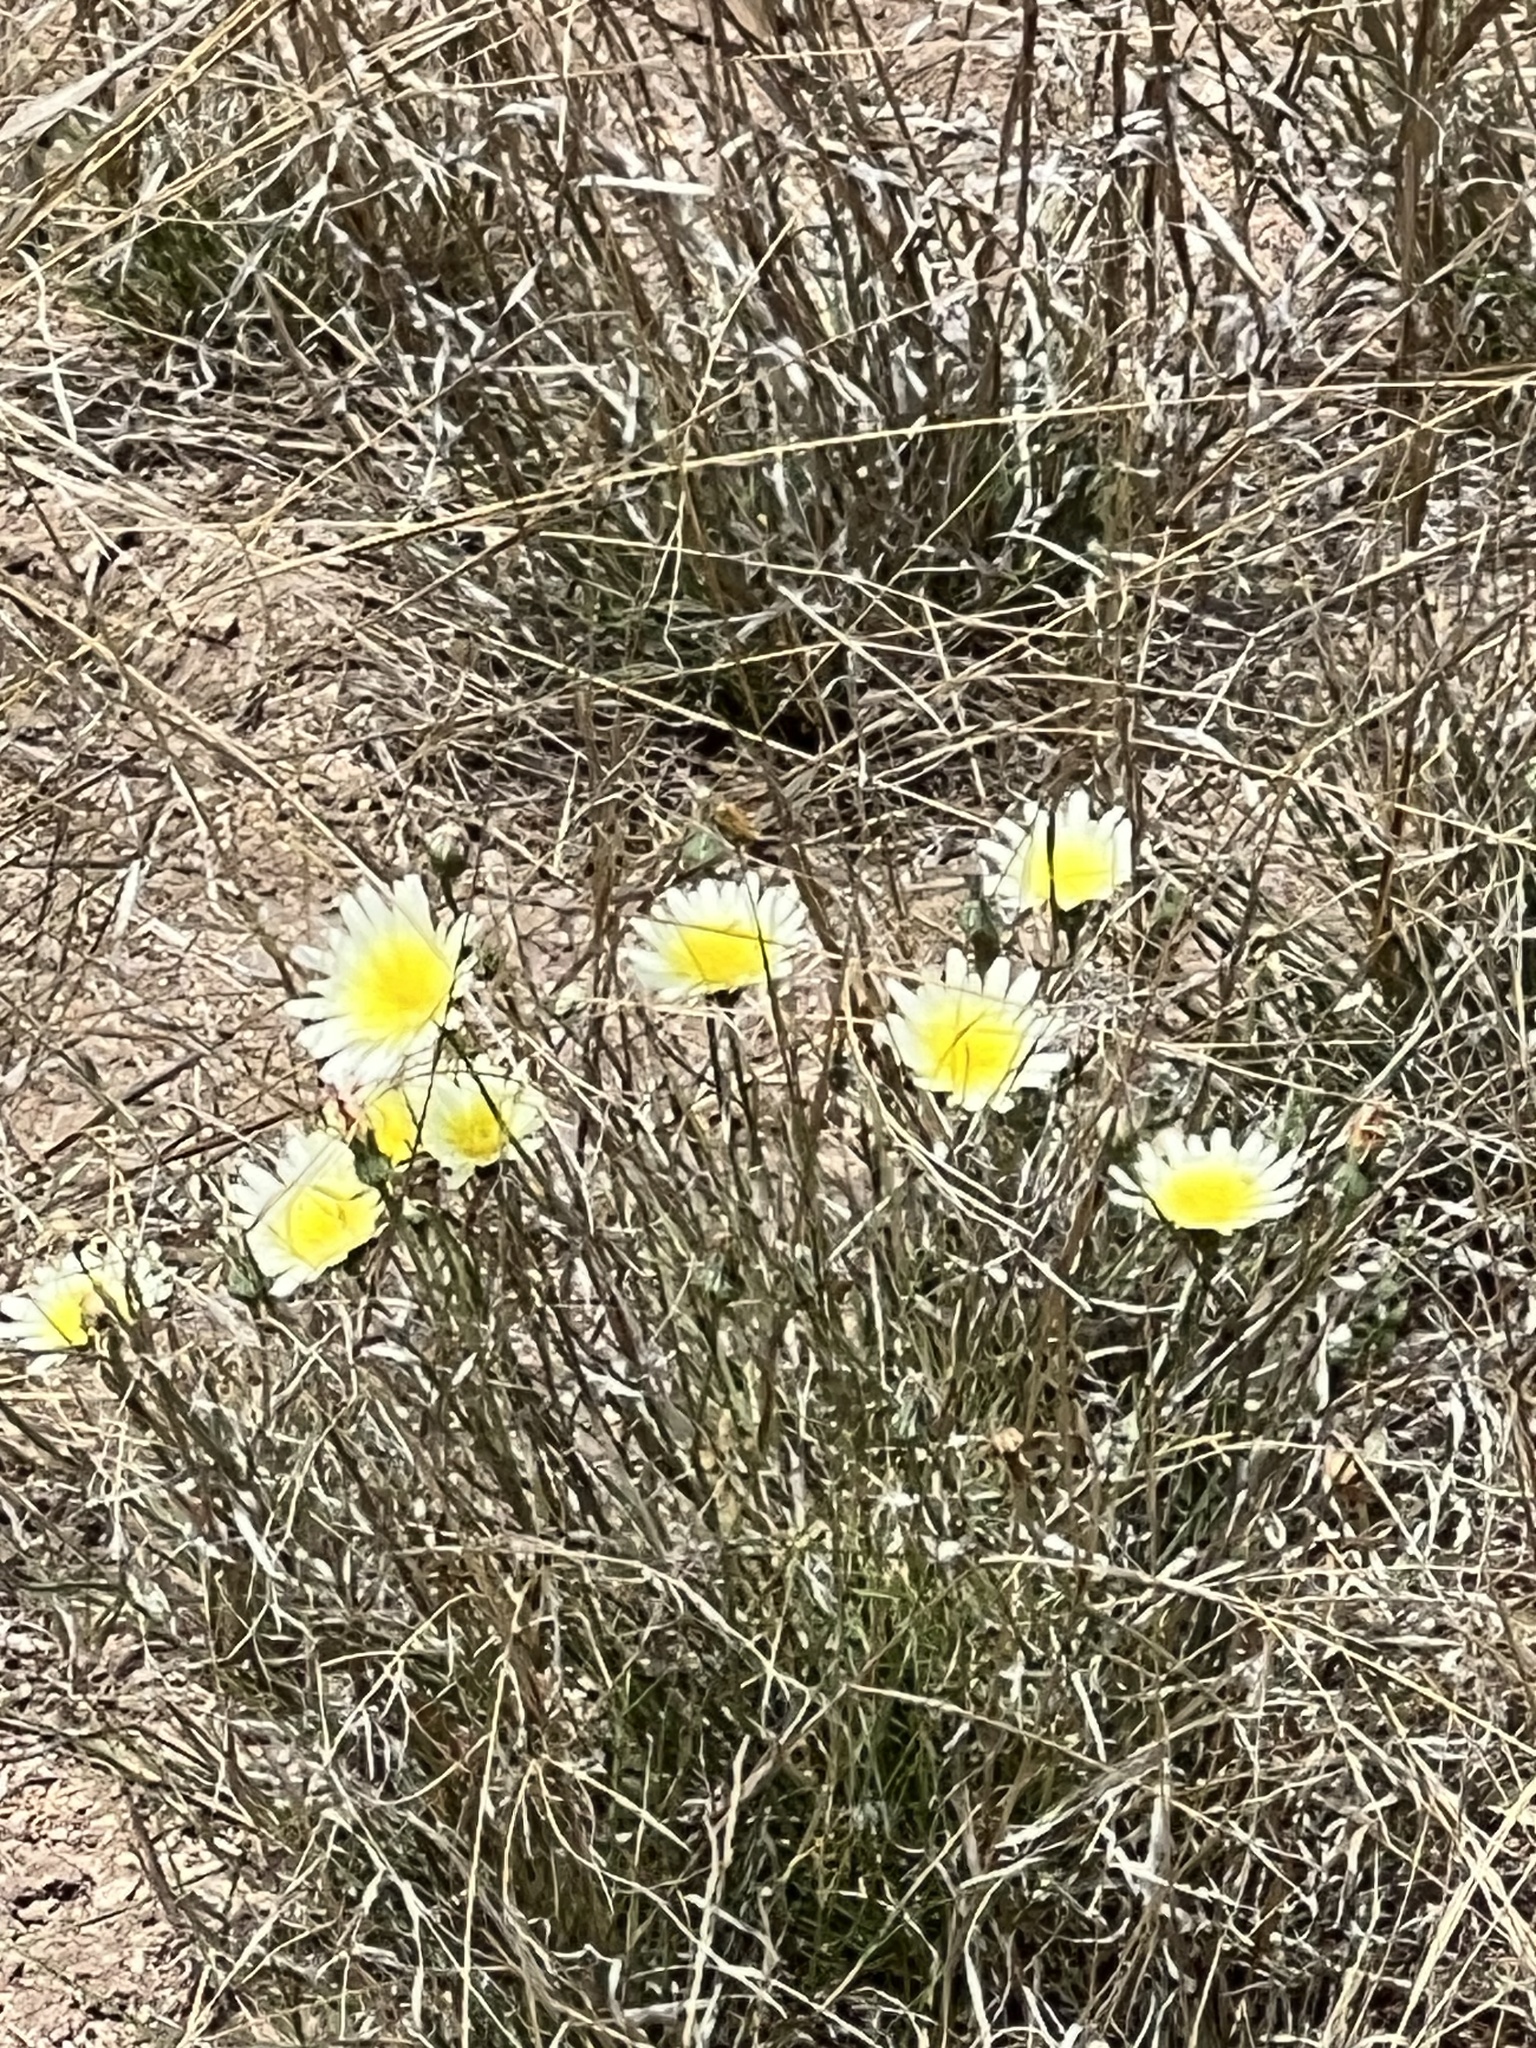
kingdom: Plantae
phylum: Tracheophyta
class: Magnoliopsida
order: Asterales
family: Asteraceae
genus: Malacothrix
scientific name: Malacothrix glabrata
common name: Smooth desert-dandelion
